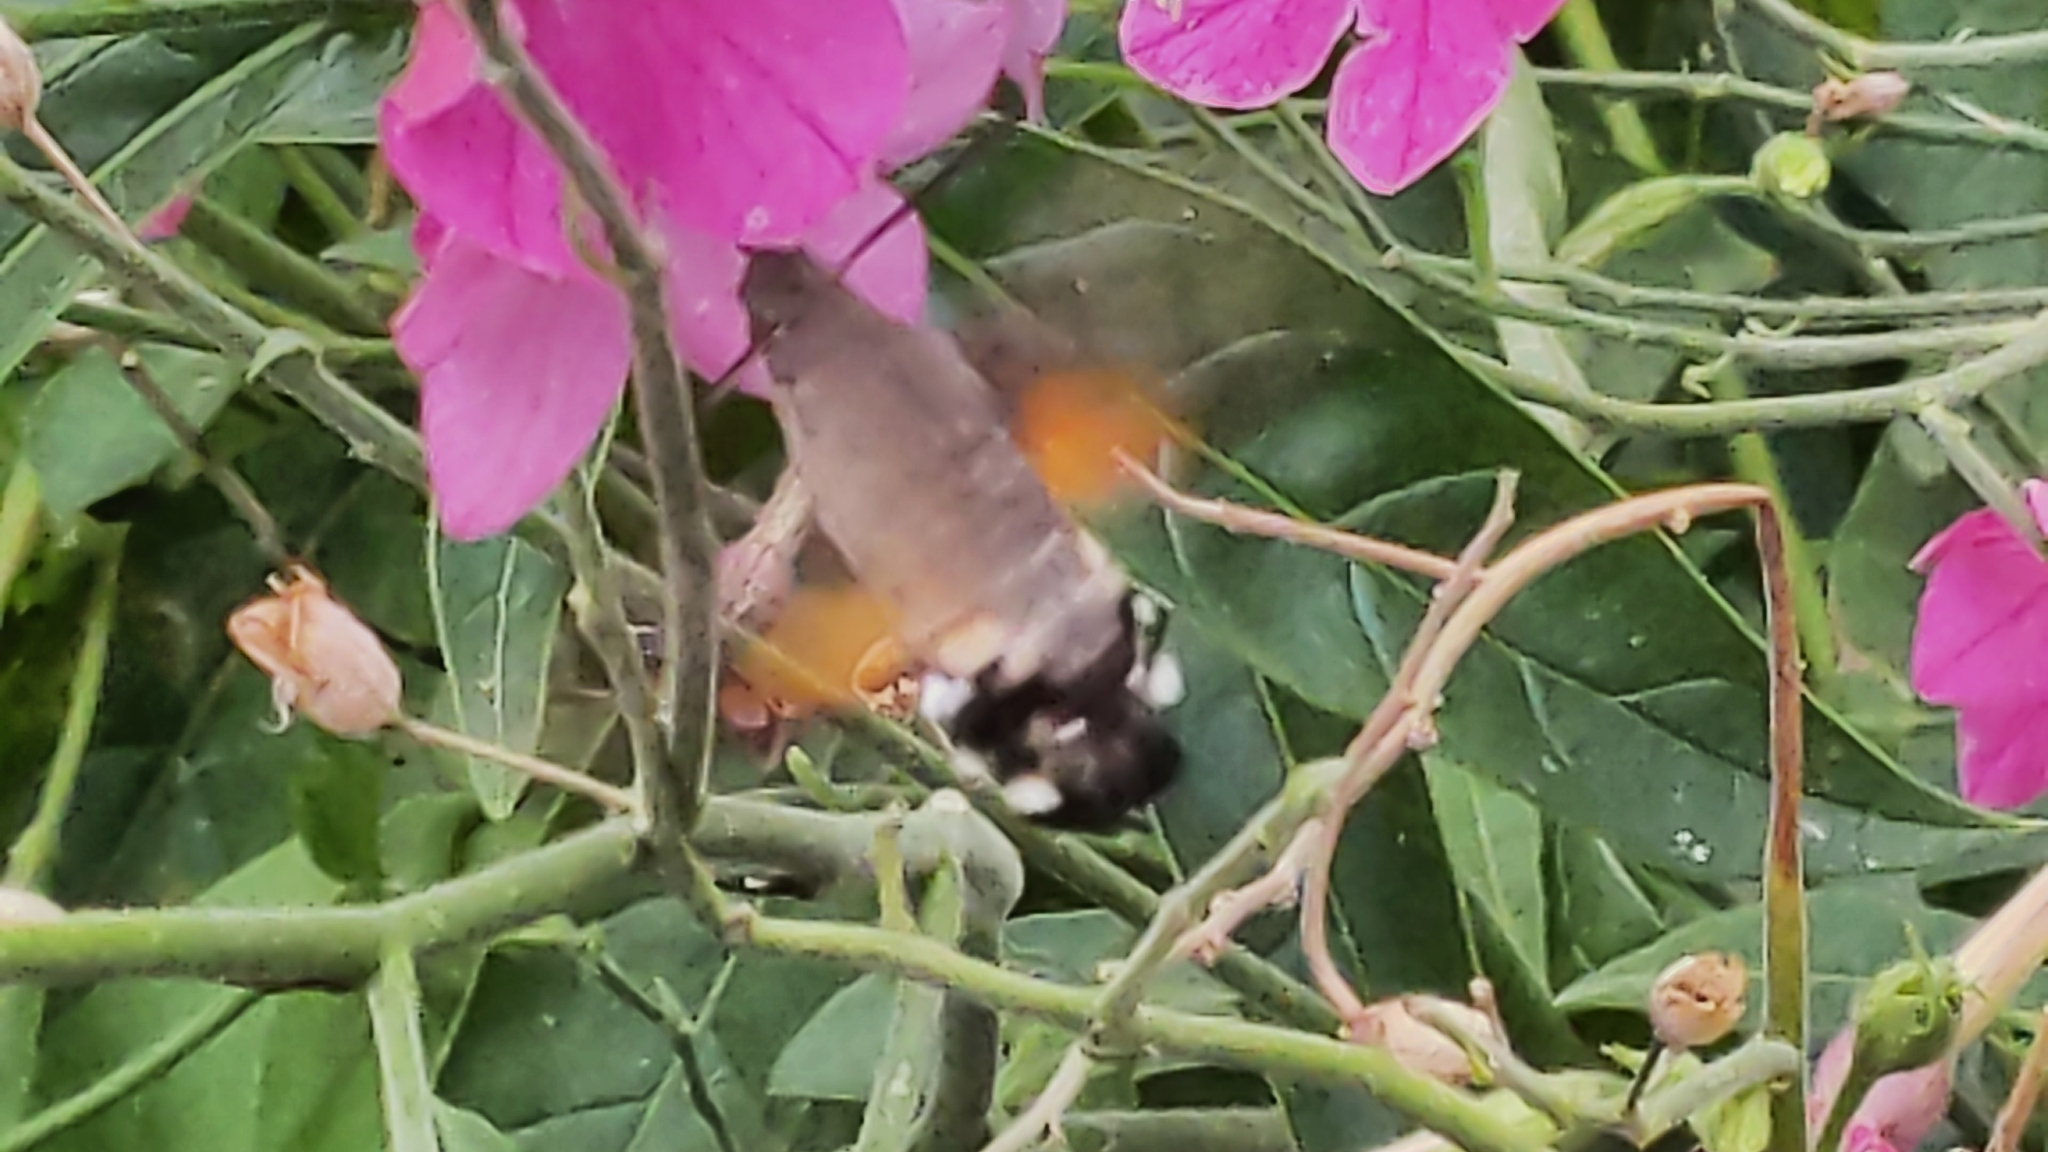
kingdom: Animalia
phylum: Arthropoda
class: Insecta
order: Lepidoptera
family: Sphingidae
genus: Macroglossum
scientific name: Macroglossum stellatarum
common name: Humming-bird hawk-moth
